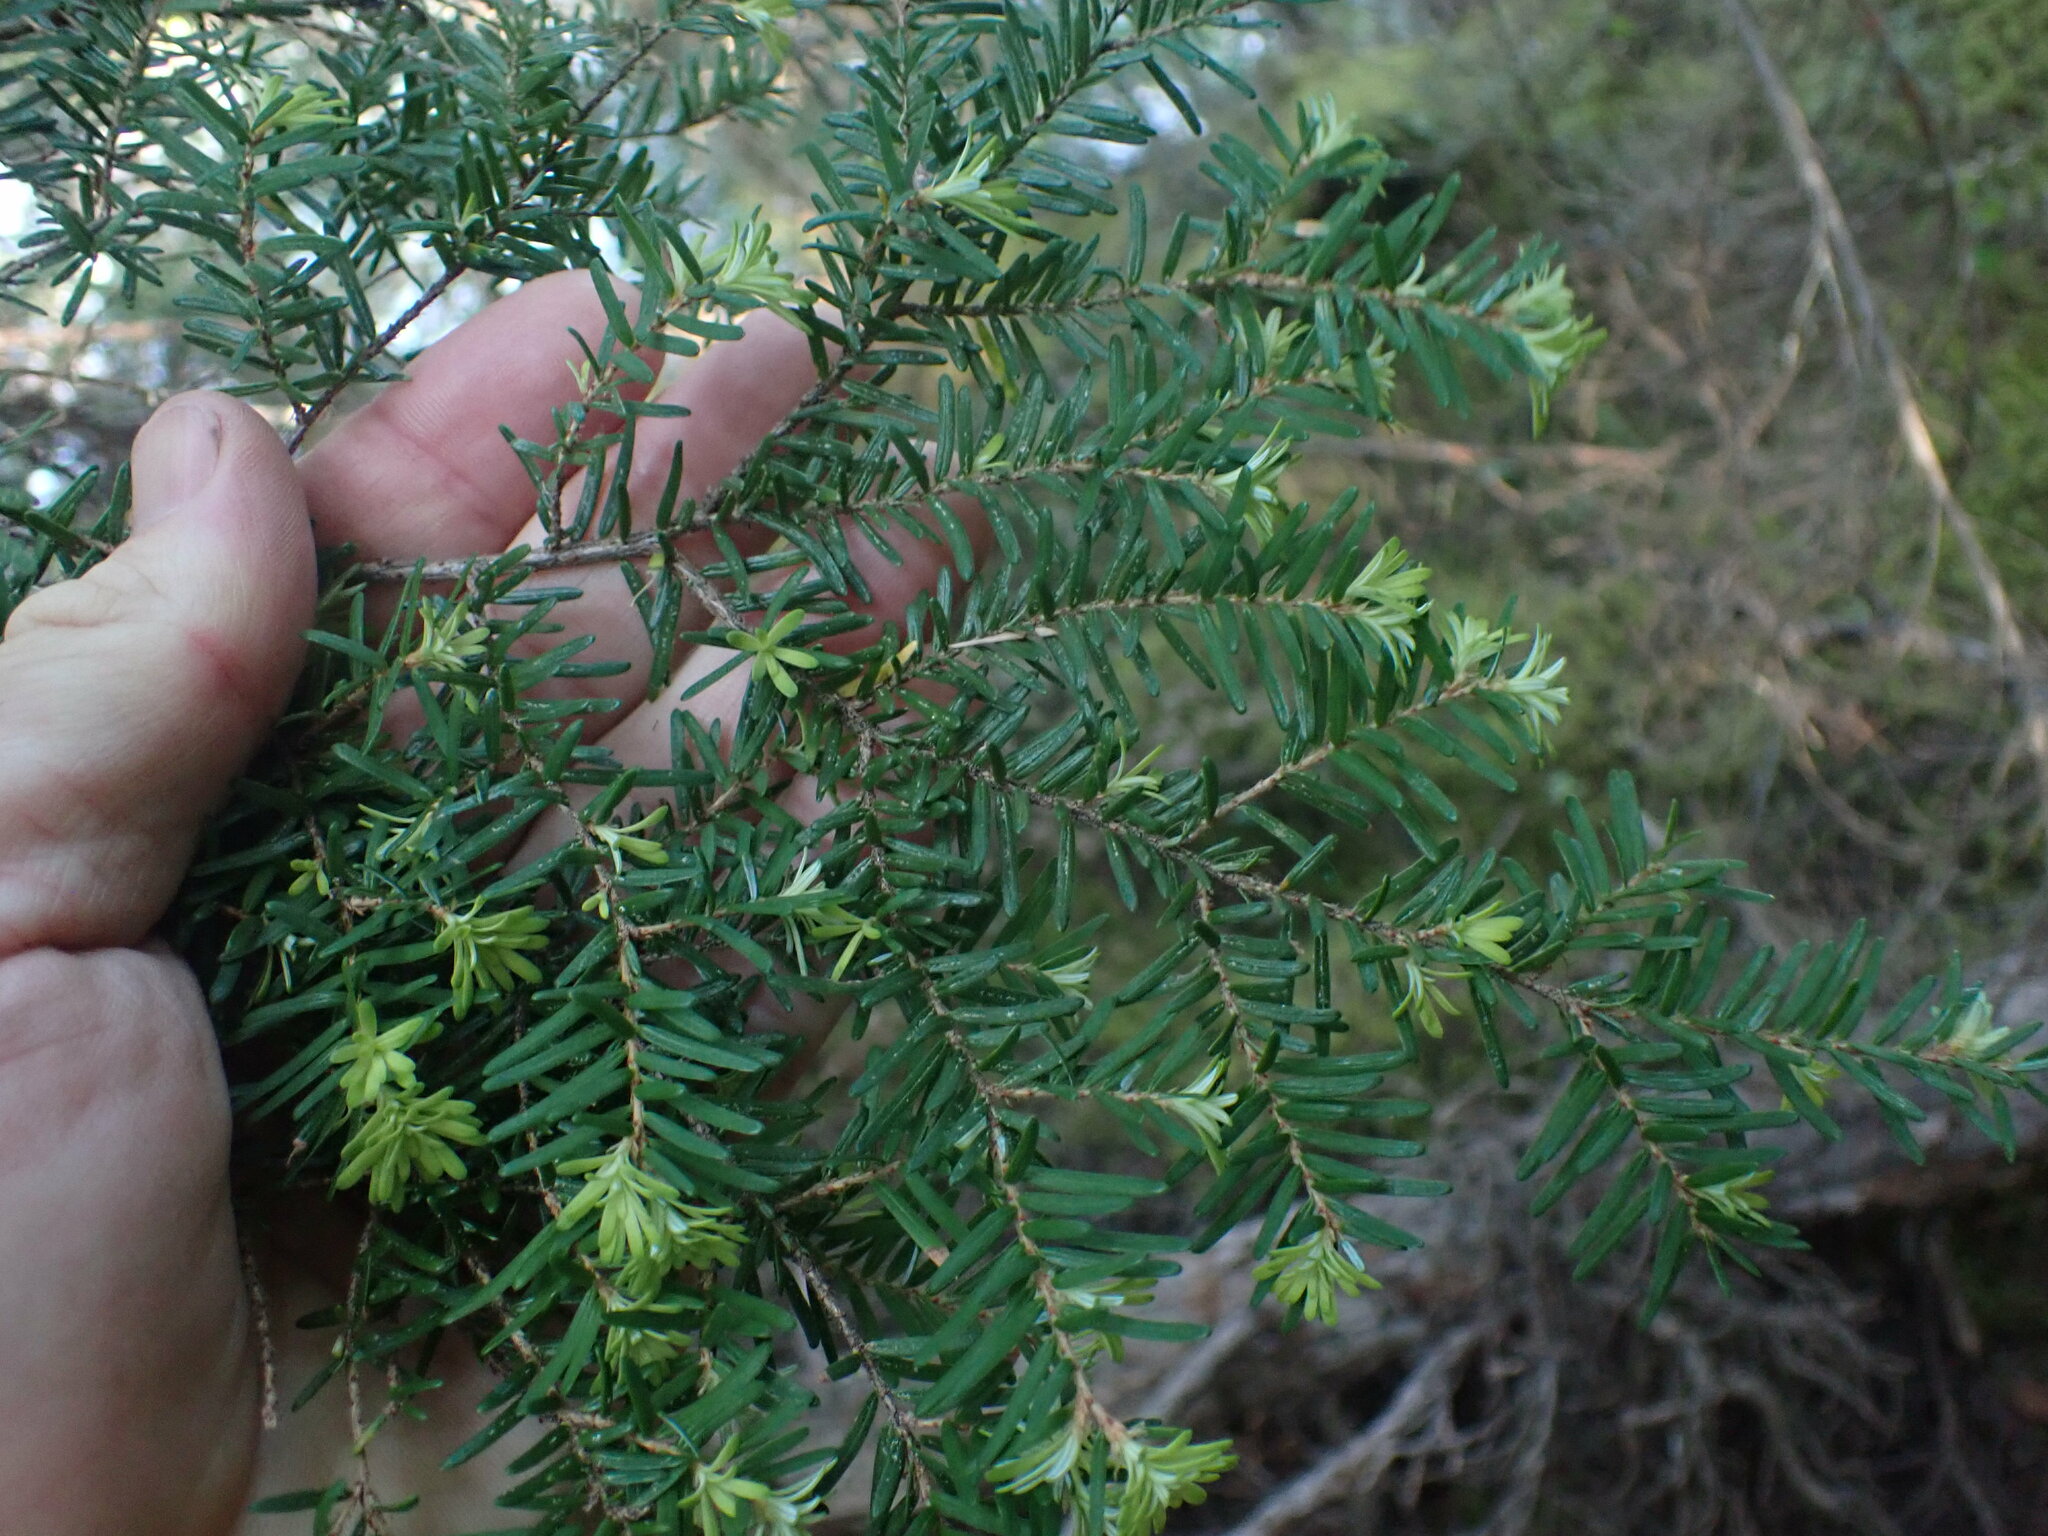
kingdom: Plantae
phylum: Tracheophyta
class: Pinopsida
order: Pinales
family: Pinaceae
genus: Tsuga
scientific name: Tsuga heterophylla
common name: Western hemlock
